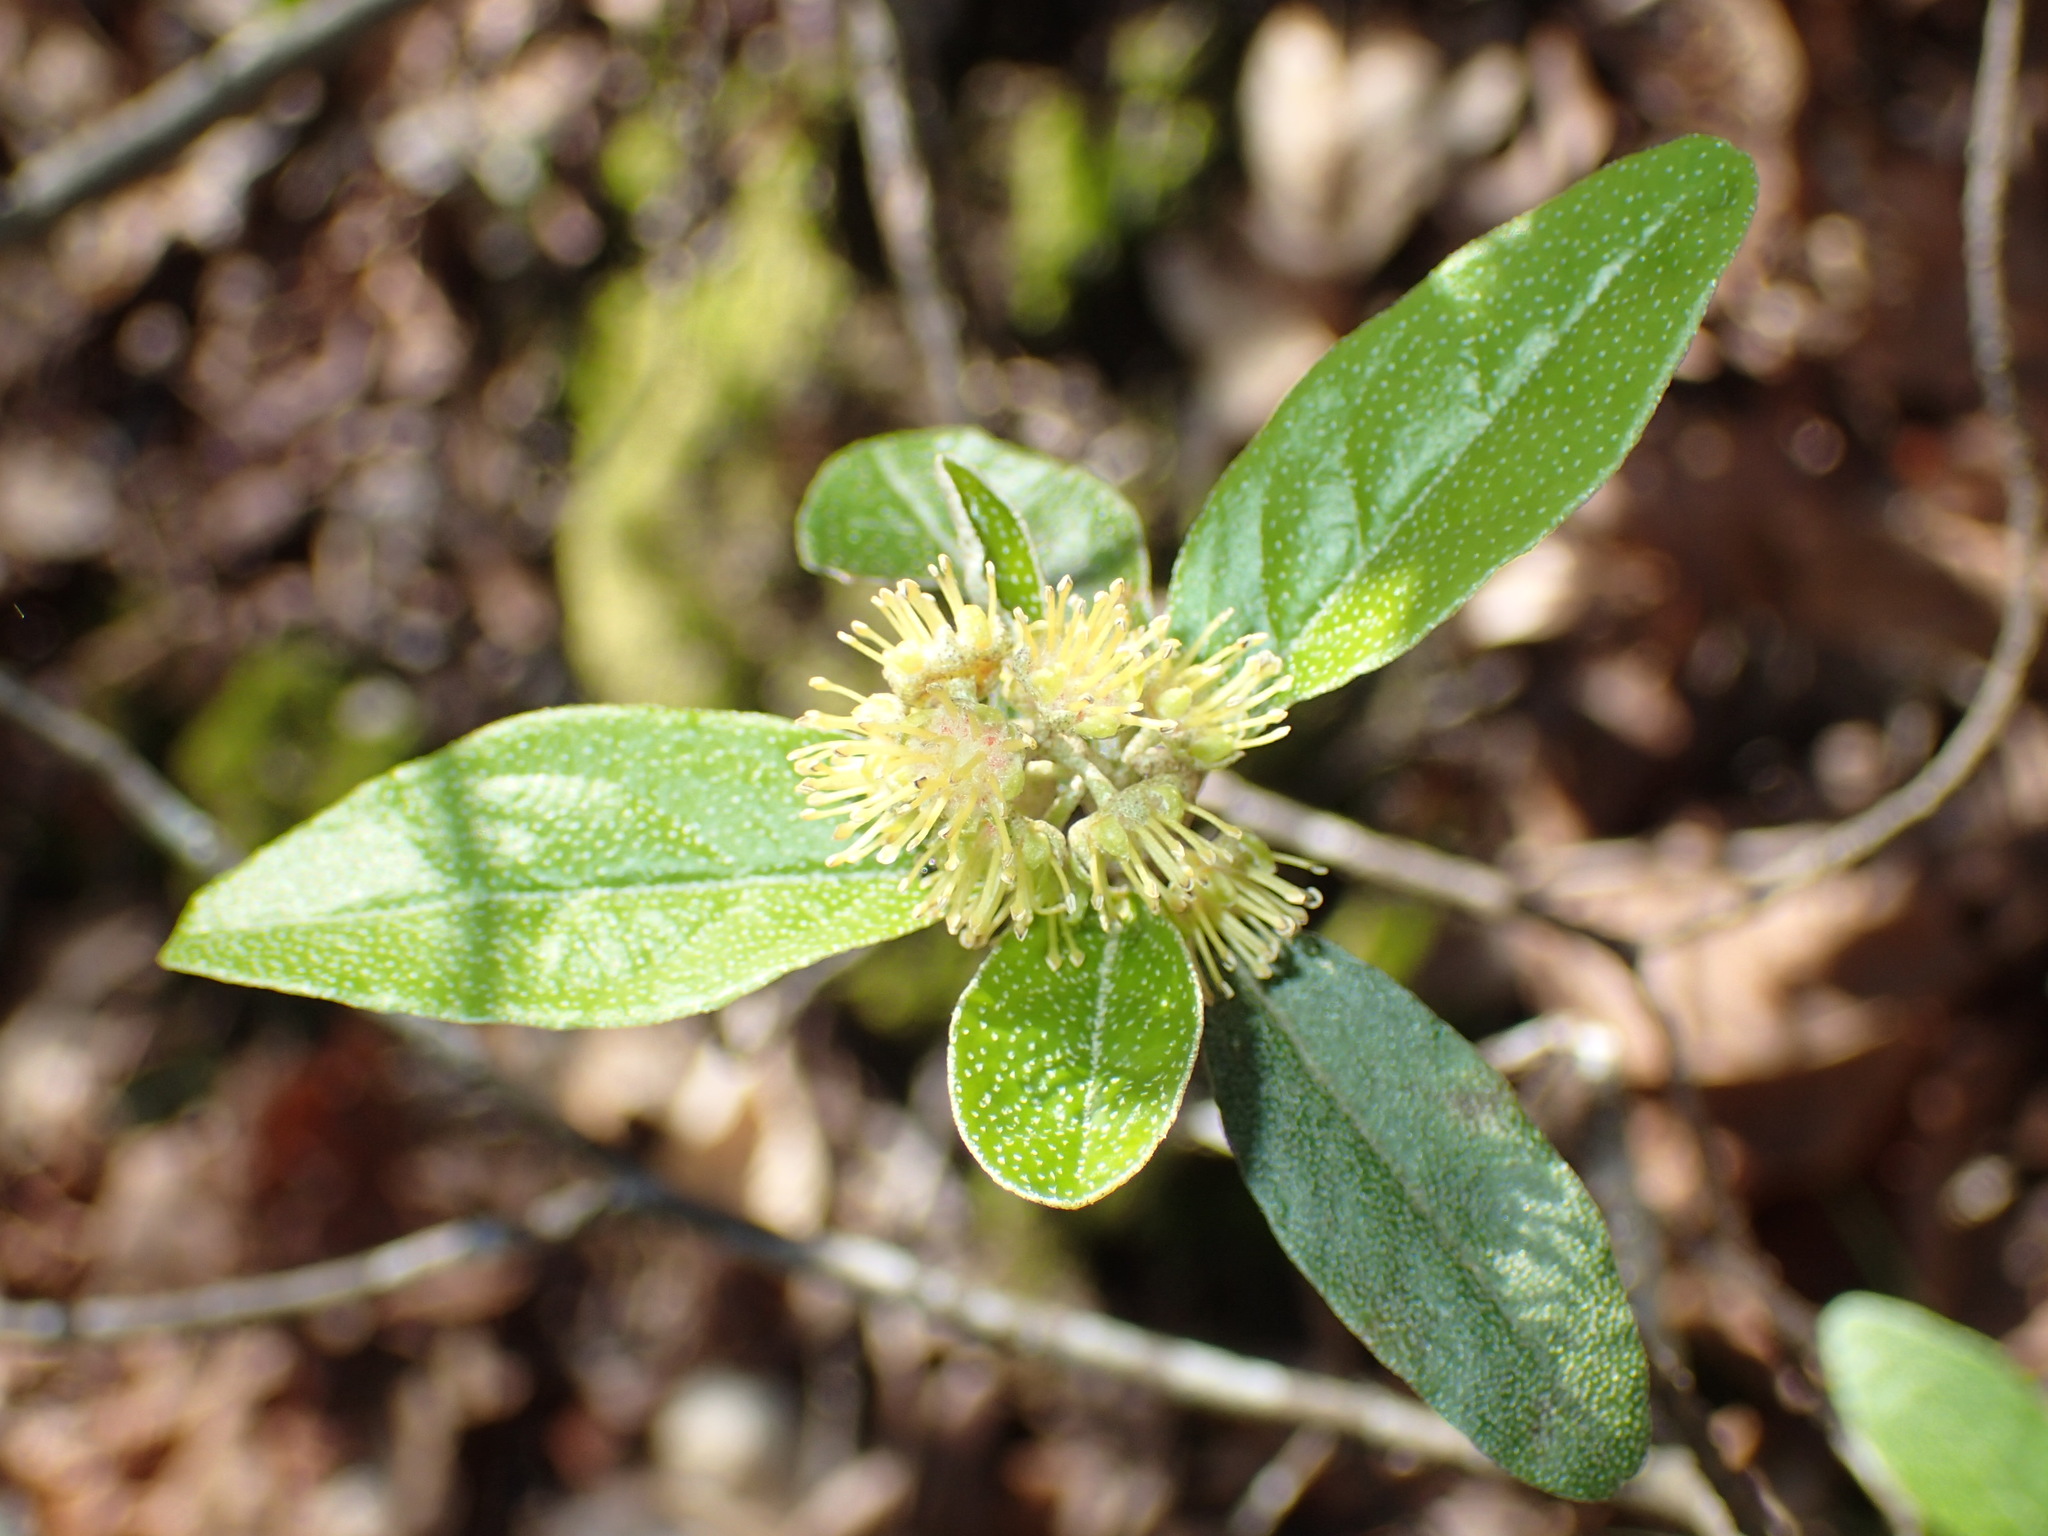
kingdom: Plantae
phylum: Tracheophyta
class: Magnoliopsida
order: Malpighiales
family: Euphorbiaceae
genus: Croton
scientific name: Croton alabamensis
